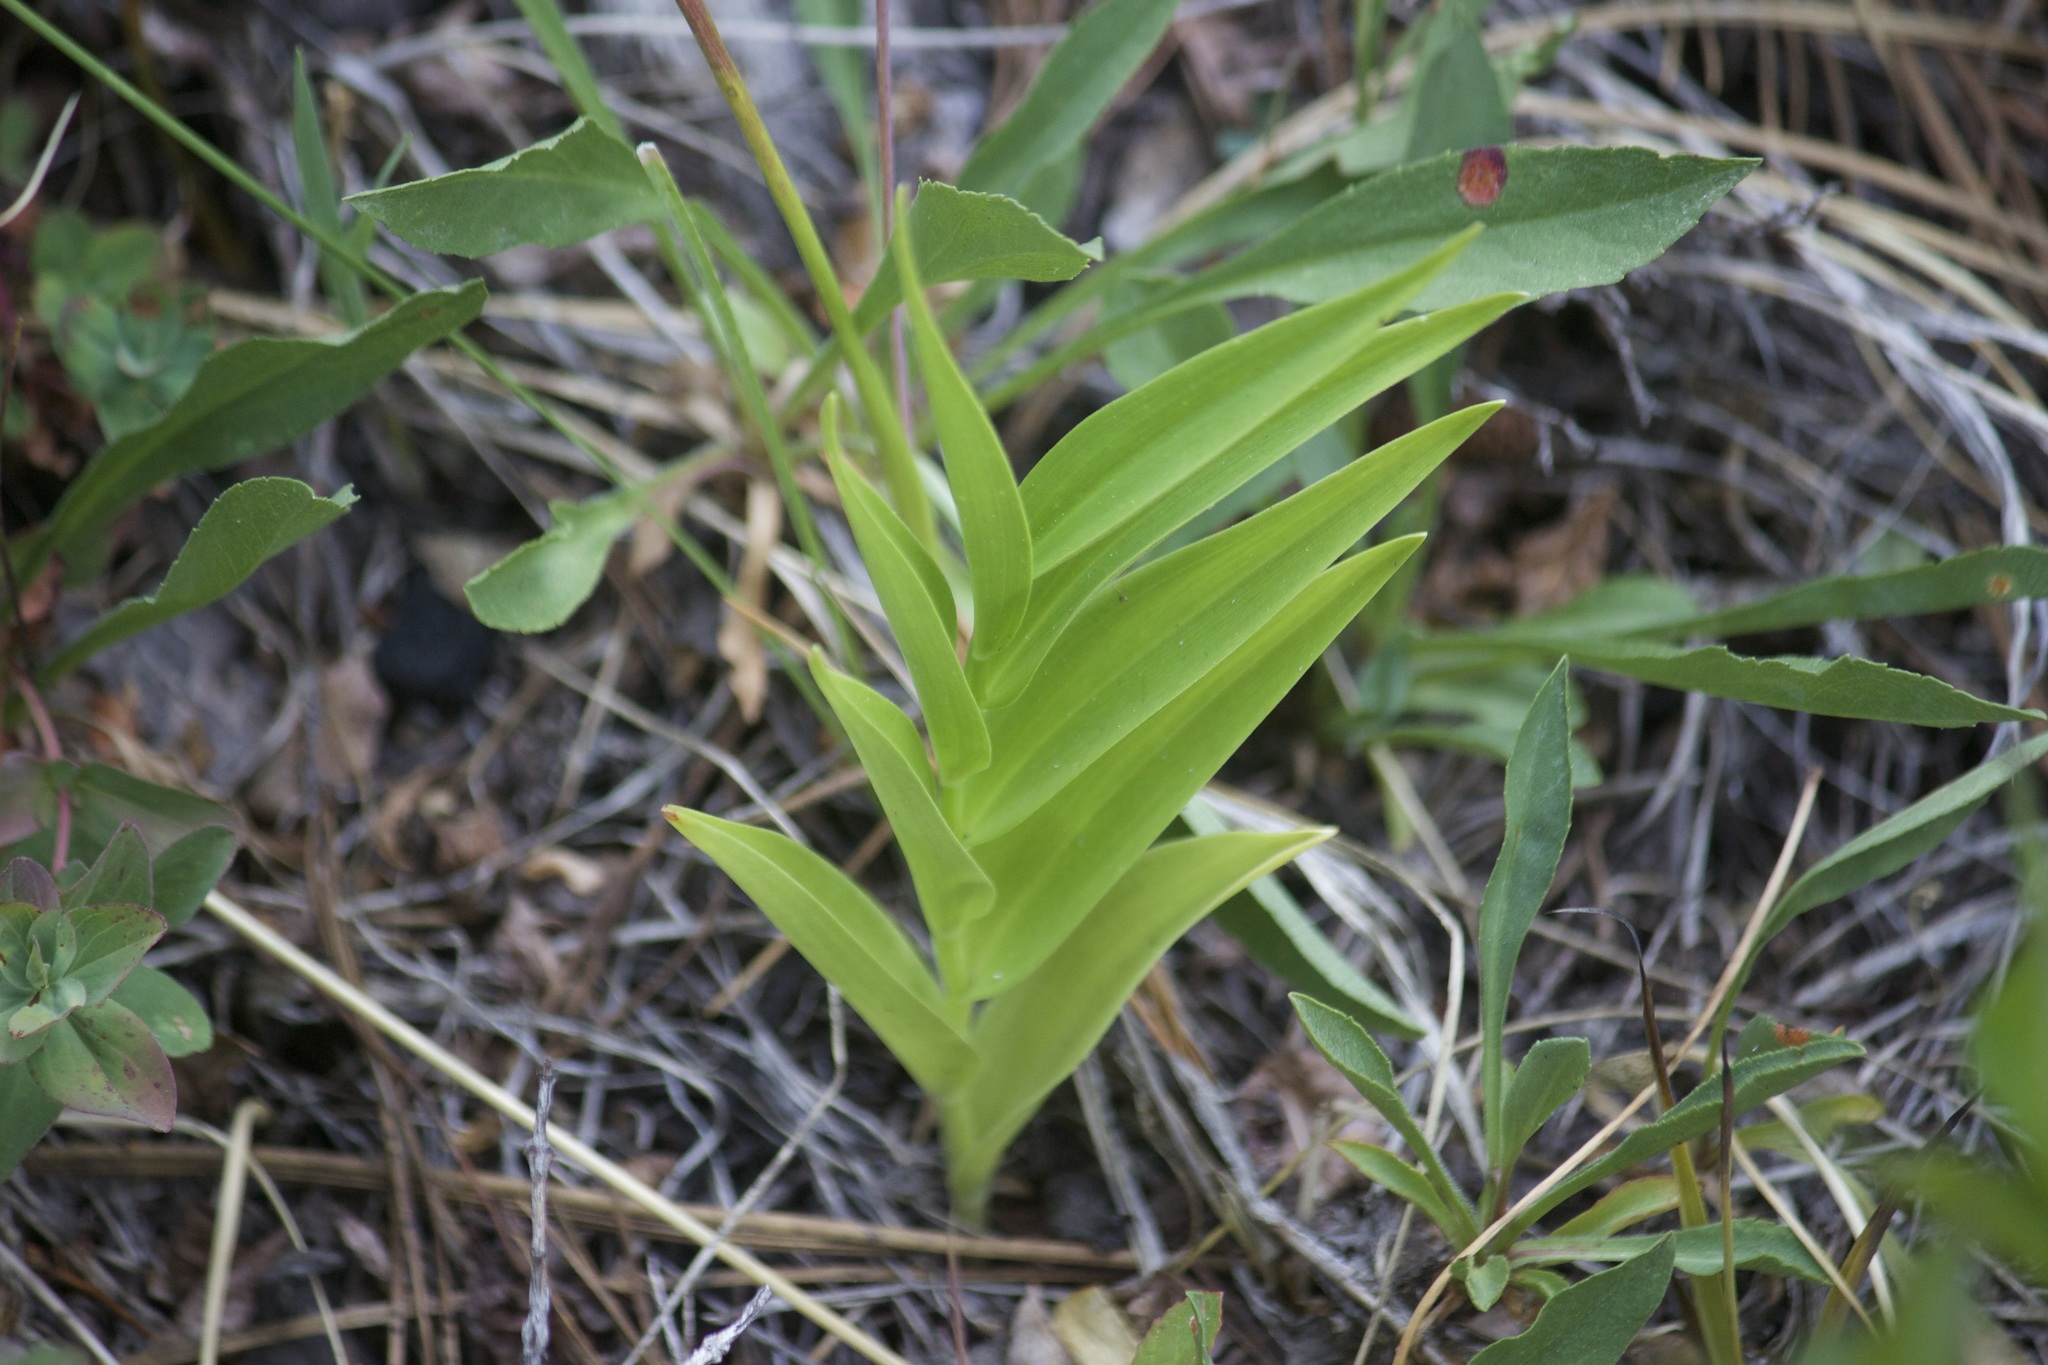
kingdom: Plantae
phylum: Tracheophyta
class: Liliopsida
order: Asparagales
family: Asparagaceae
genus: Maianthemum
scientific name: Maianthemum stellatum
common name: Little false solomon's seal
